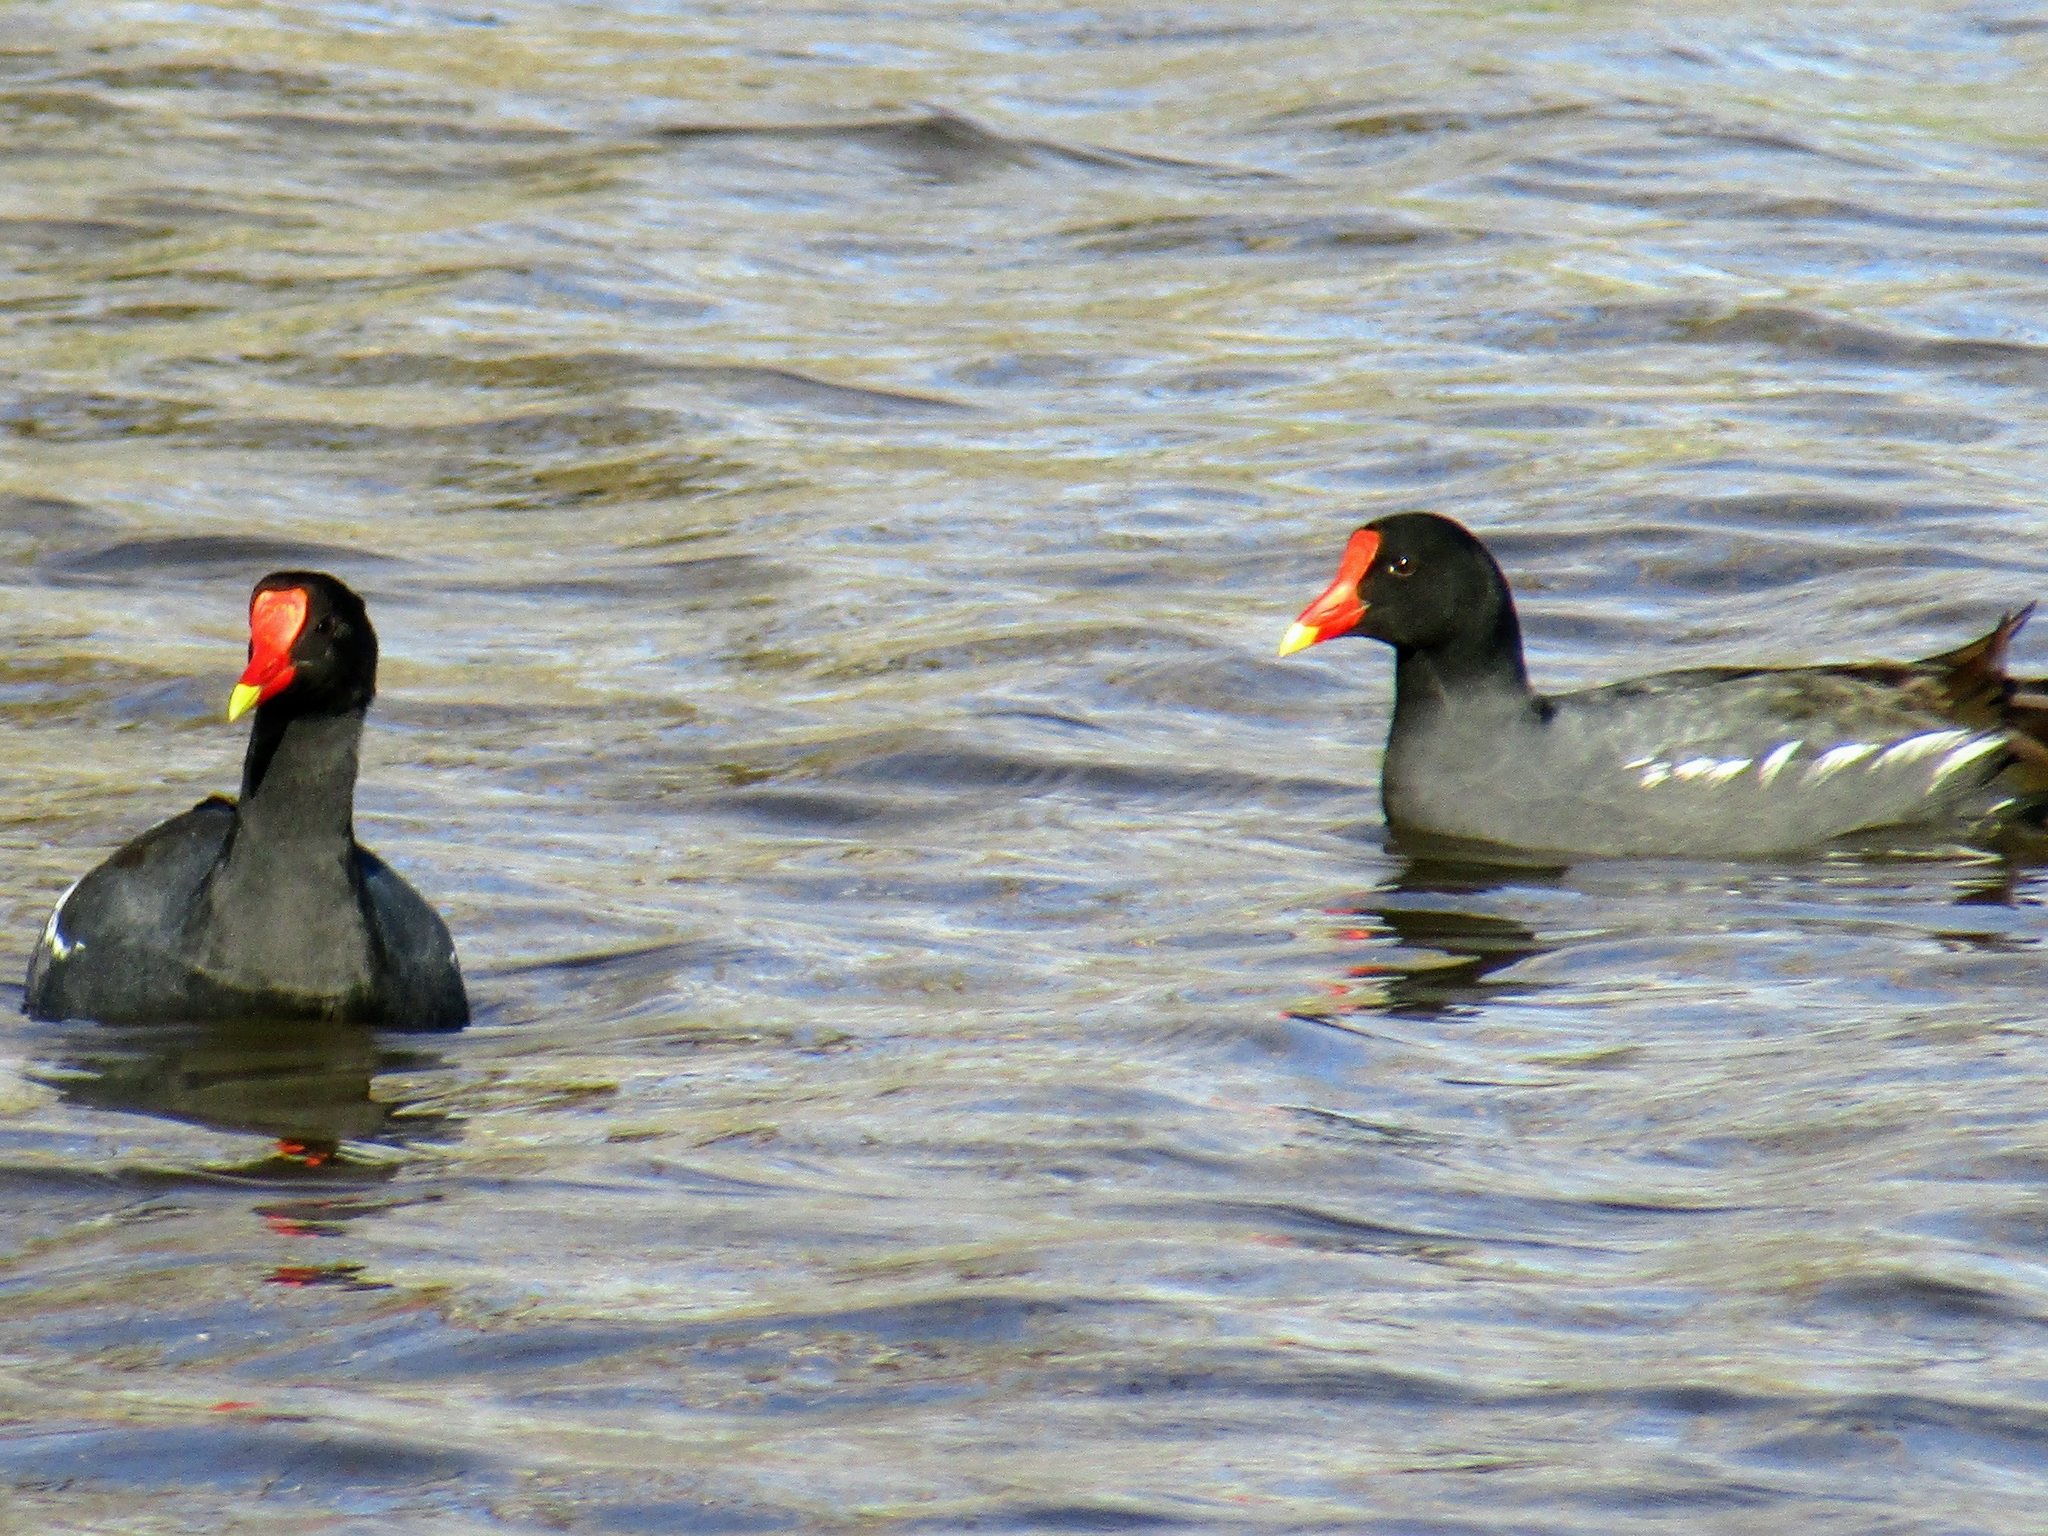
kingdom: Animalia
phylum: Chordata
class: Aves
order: Gruiformes
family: Rallidae
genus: Gallinula
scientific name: Gallinula chloropus
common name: Common moorhen
